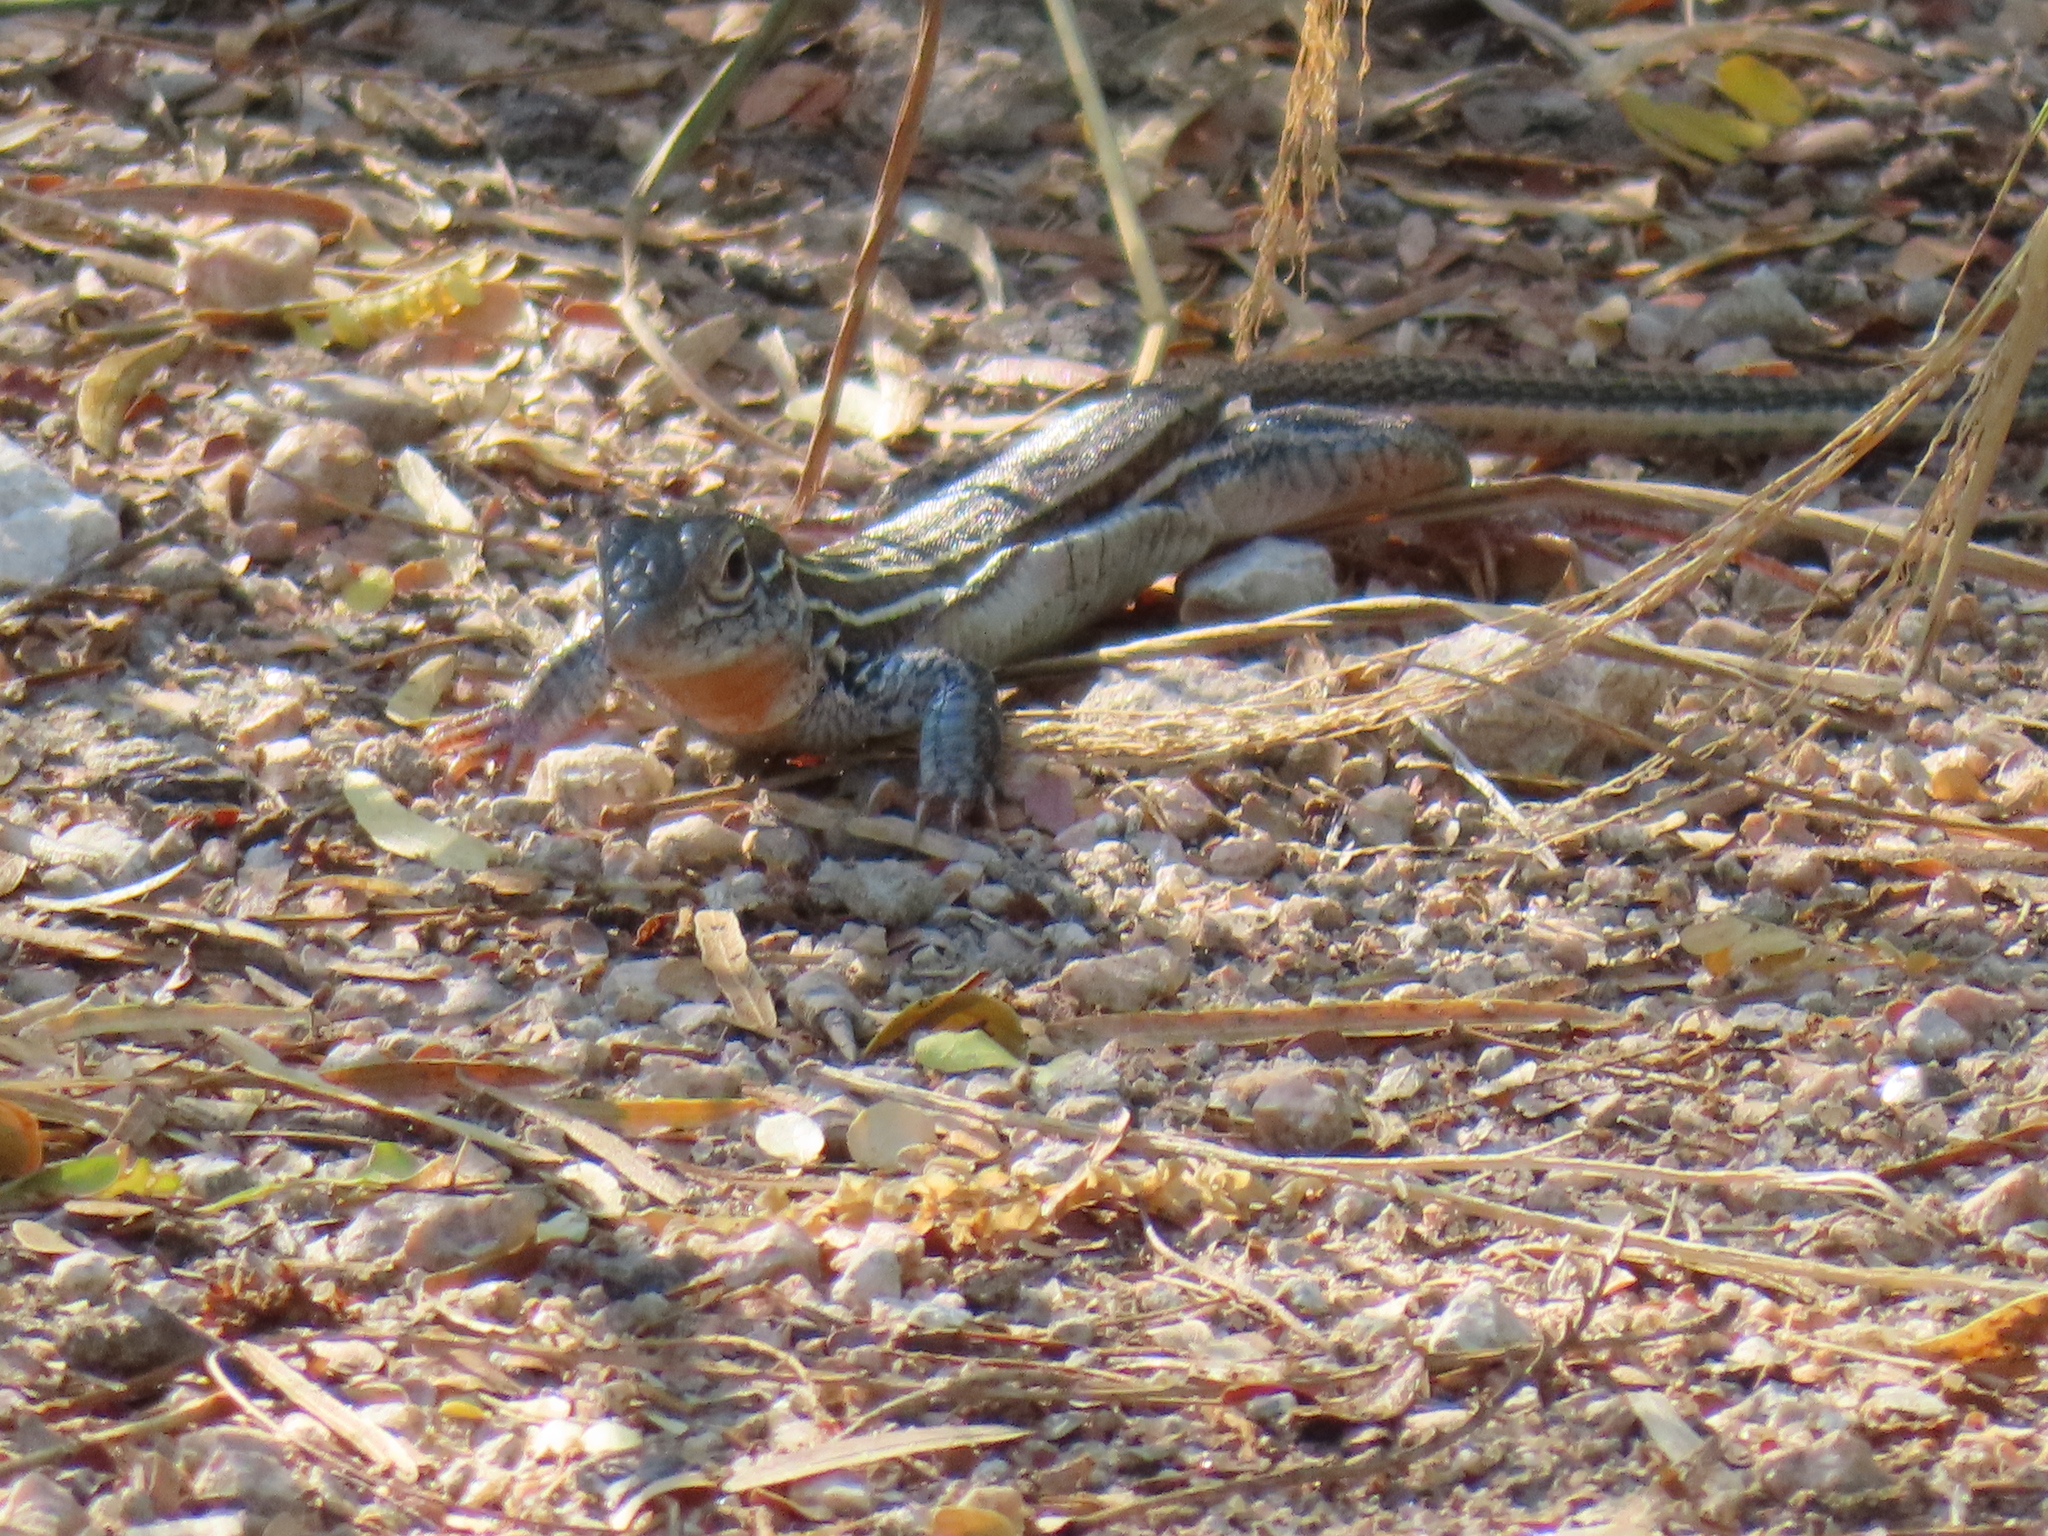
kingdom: Animalia
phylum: Chordata
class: Squamata
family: Teiidae
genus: Aspidoscelis
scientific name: Aspidoscelis gularis
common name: Eastern spotted whiptail
